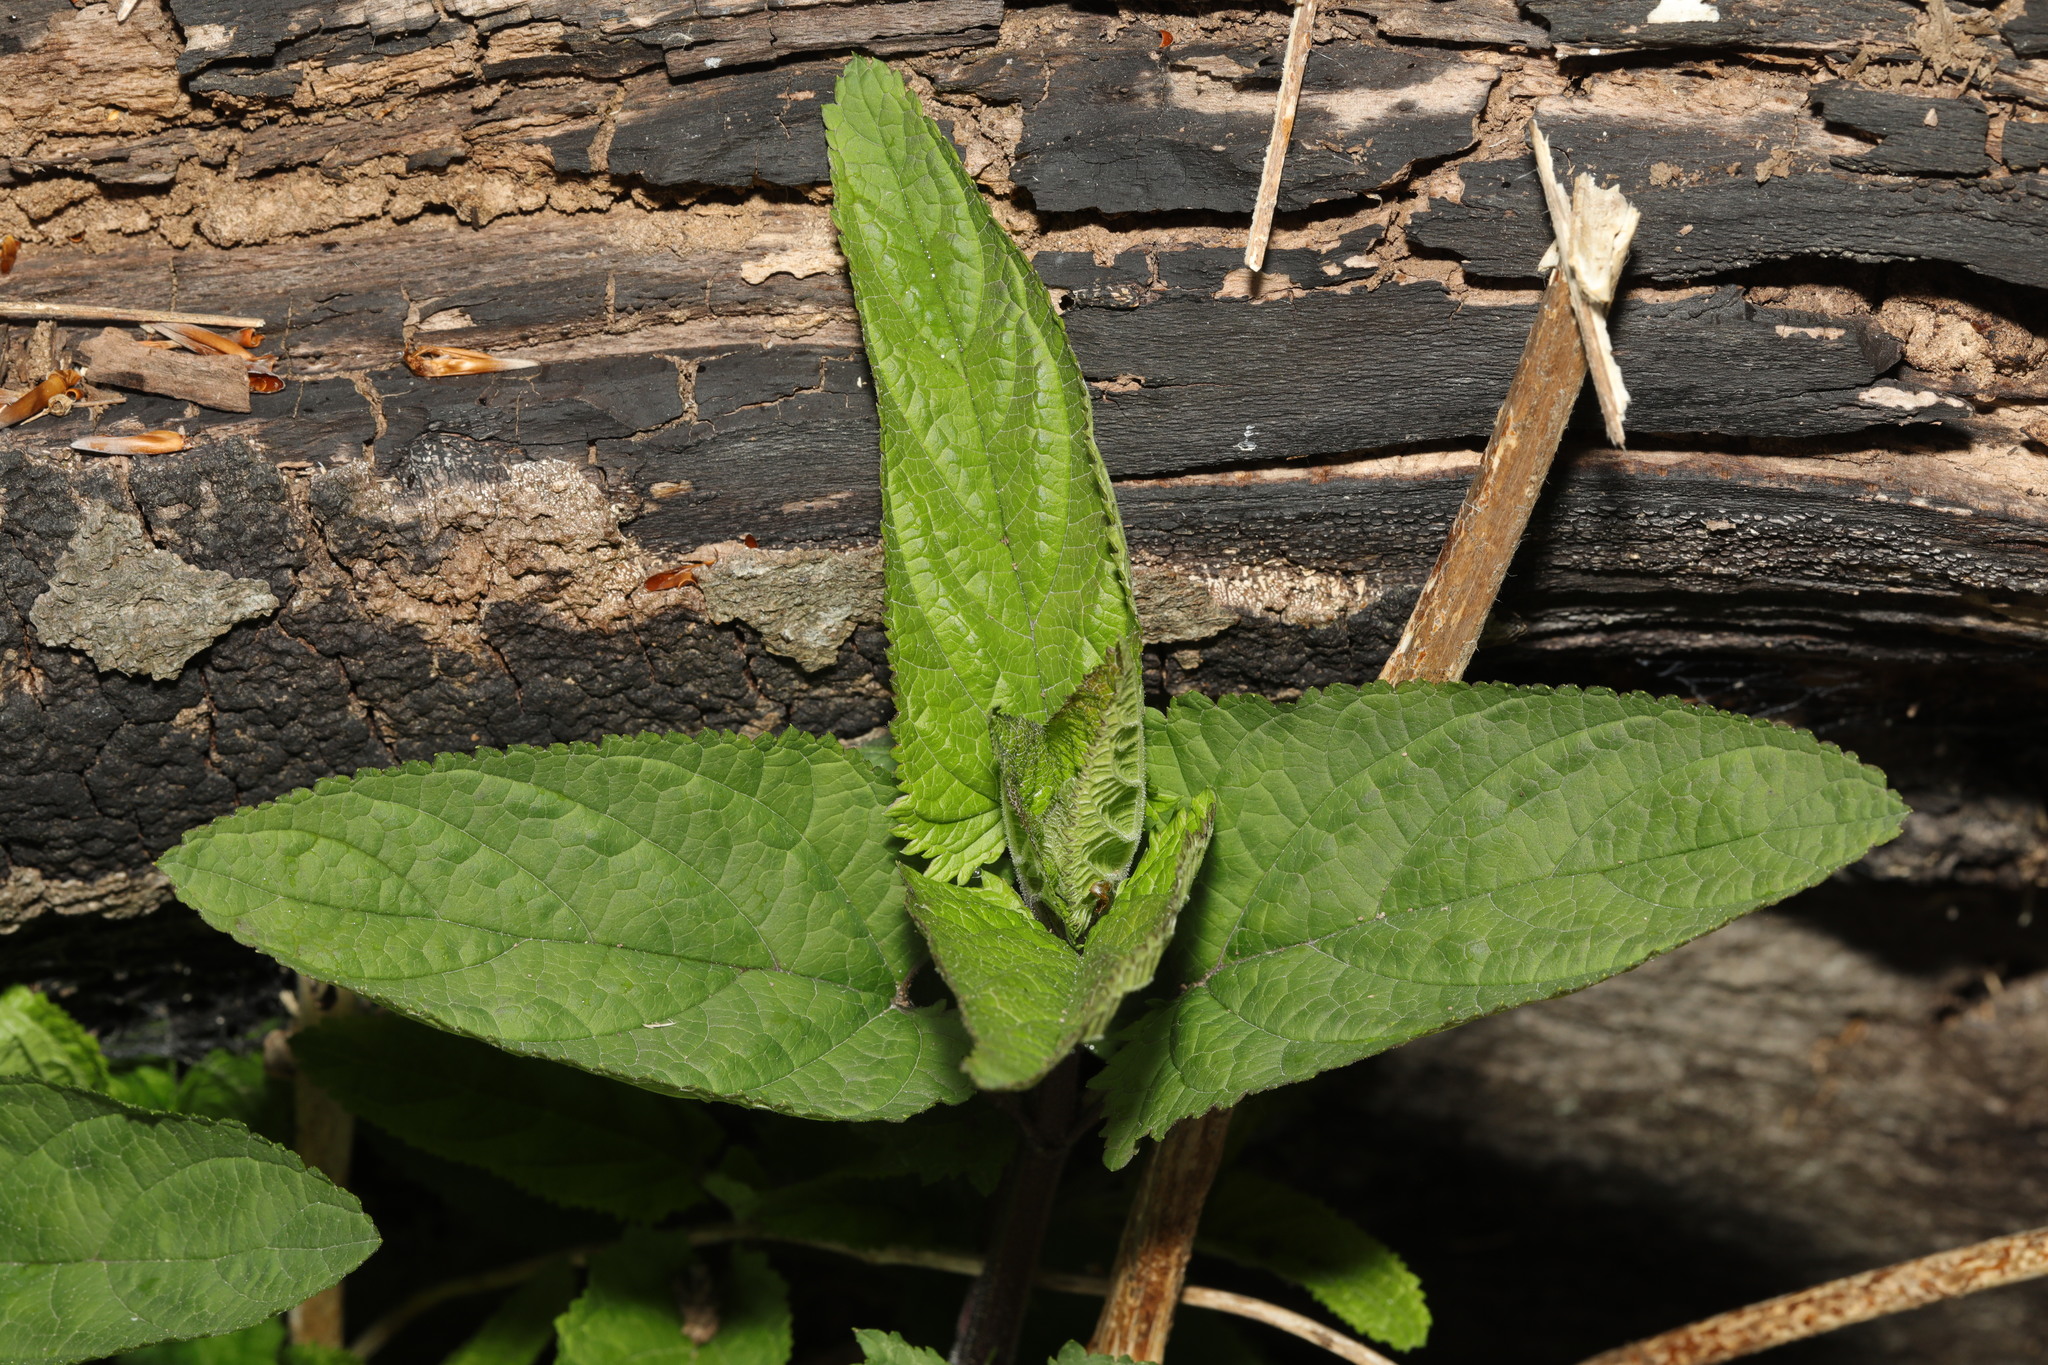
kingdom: Plantae
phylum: Tracheophyta
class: Magnoliopsida
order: Lamiales
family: Scrophulariaceae
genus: Scrophularia
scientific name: Scrophularia nodosa
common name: Common figwort
